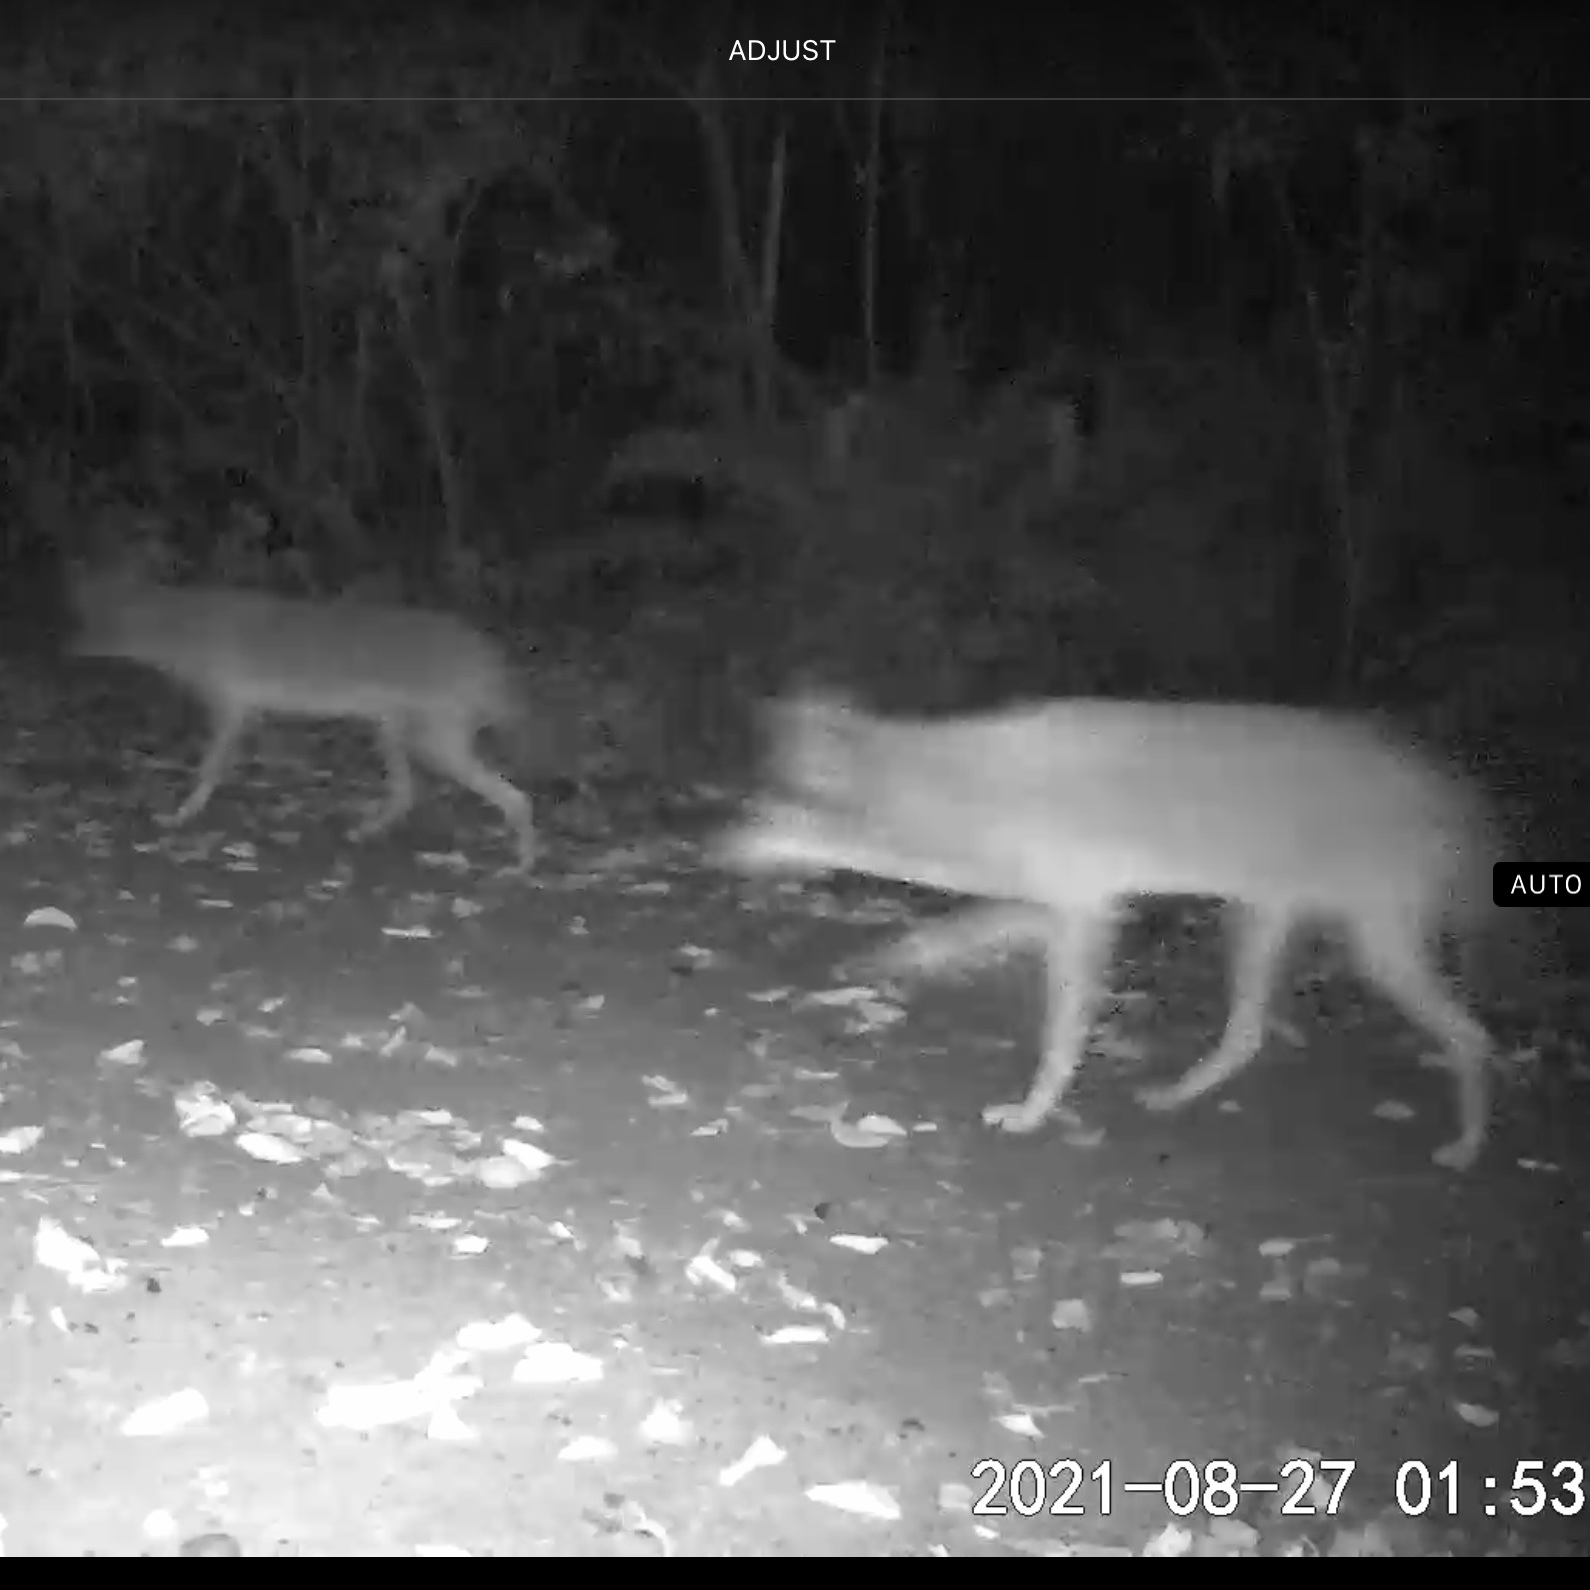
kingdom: Animalia
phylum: Chordata
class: Mammalia
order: Carnivora
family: Canidae
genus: Canis
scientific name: Canis latrans
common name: Coyote
